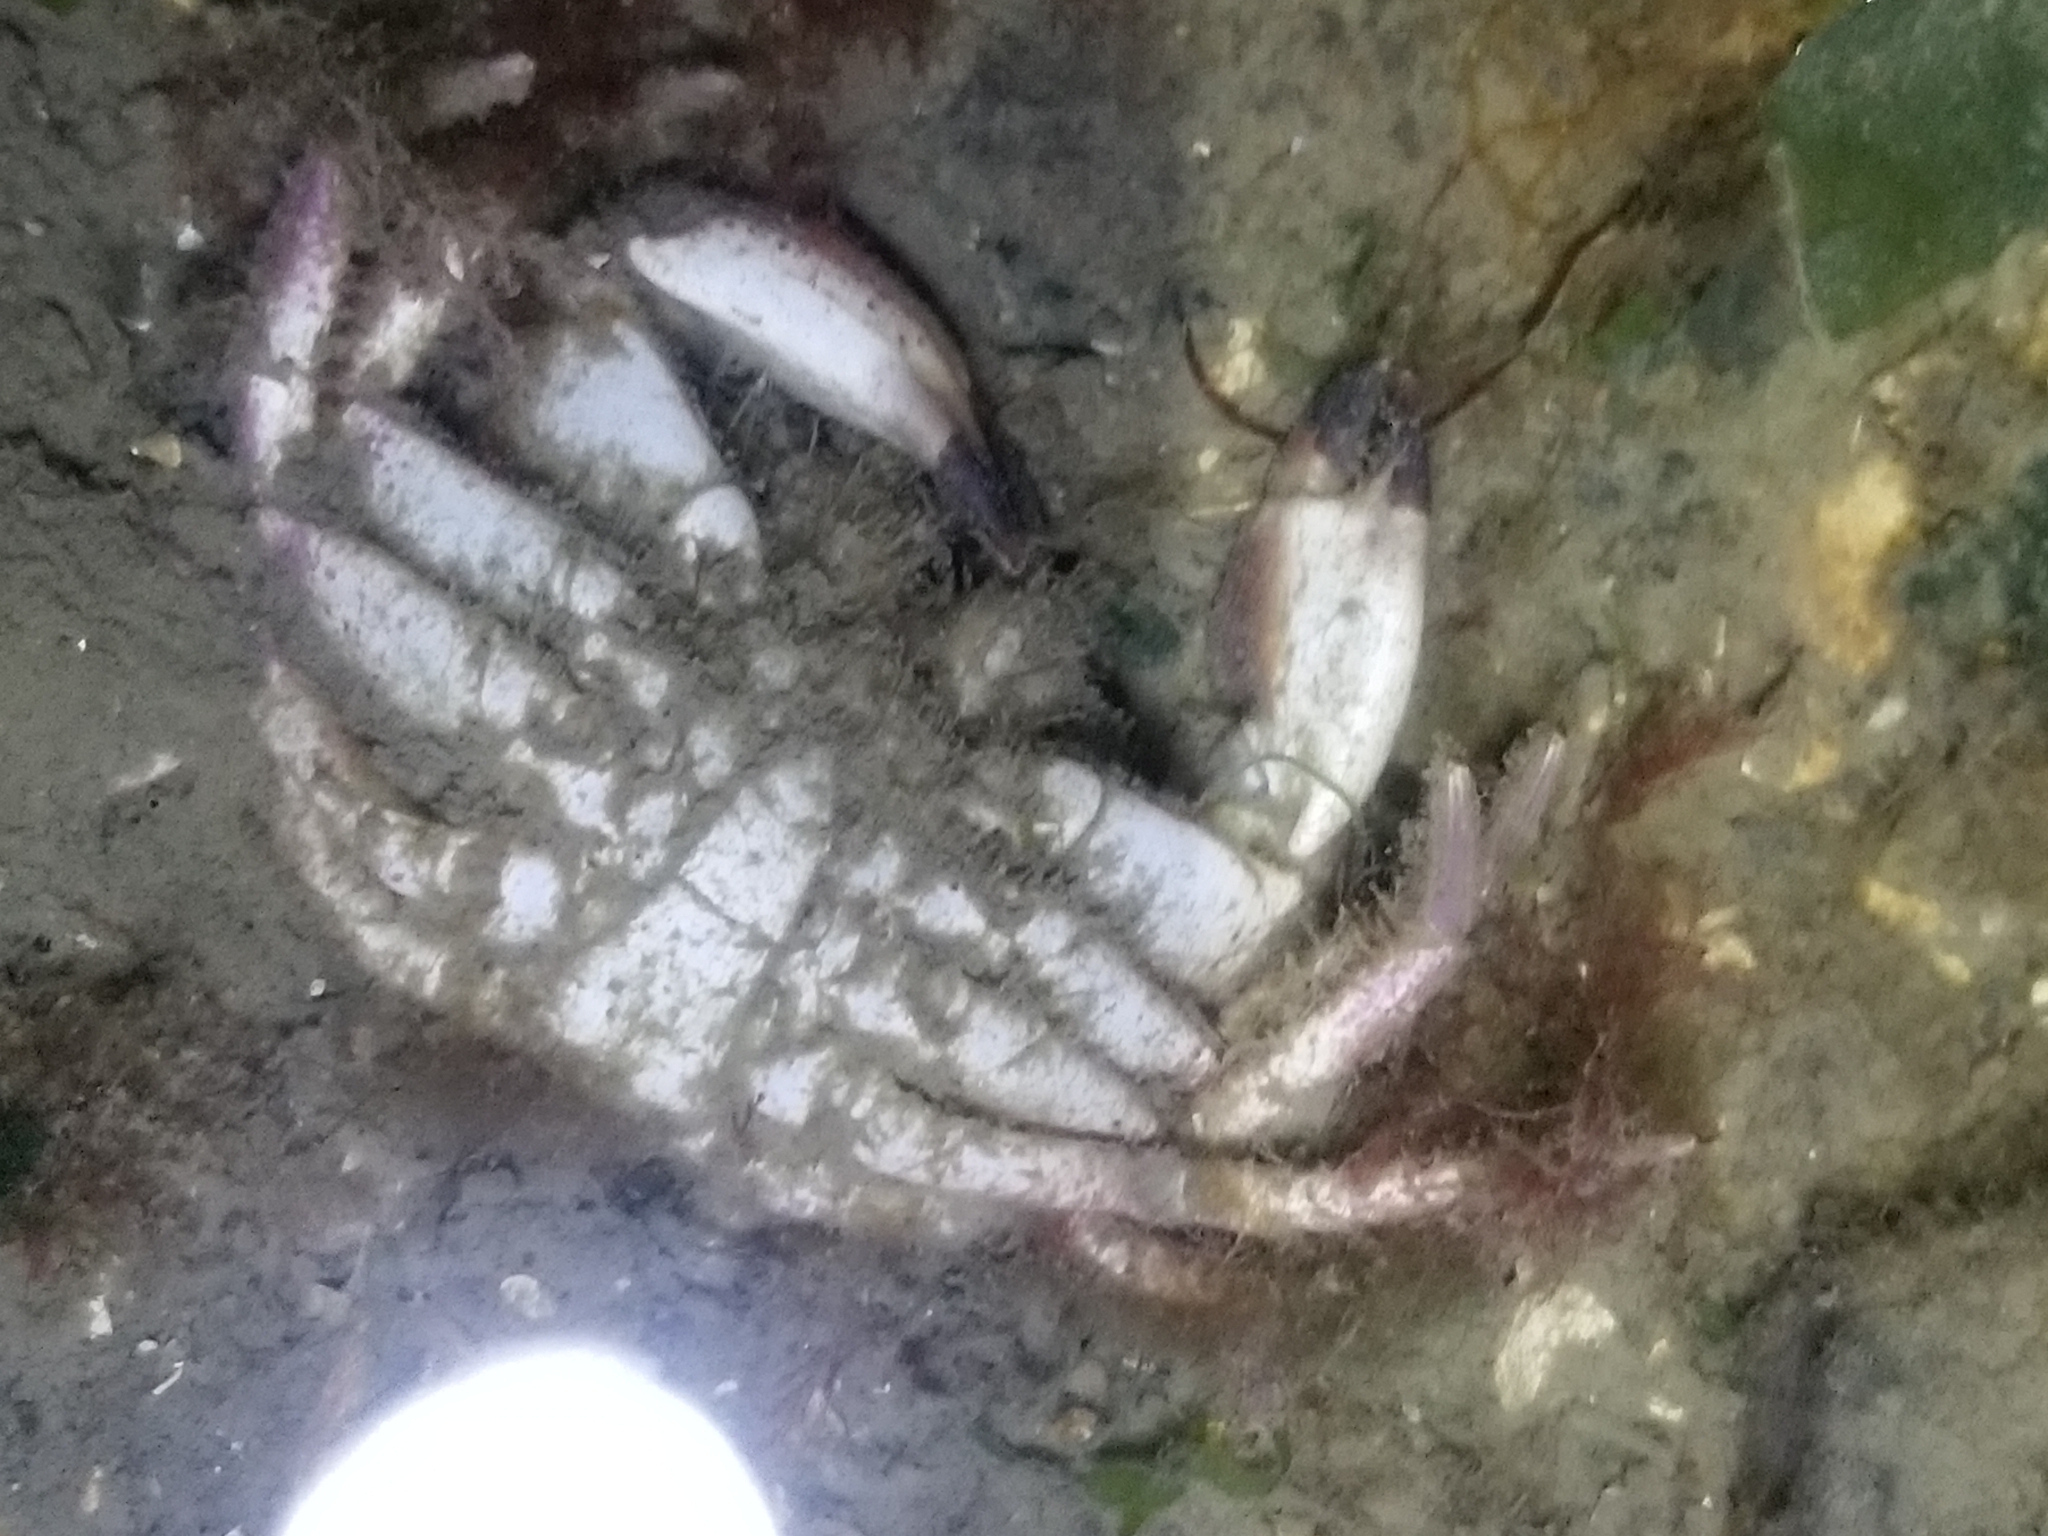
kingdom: Animalia
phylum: Arthropoda
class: Malacostraca
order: Decapoda
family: Cancridae
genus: Romaleon
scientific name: Romaleon antennarium
